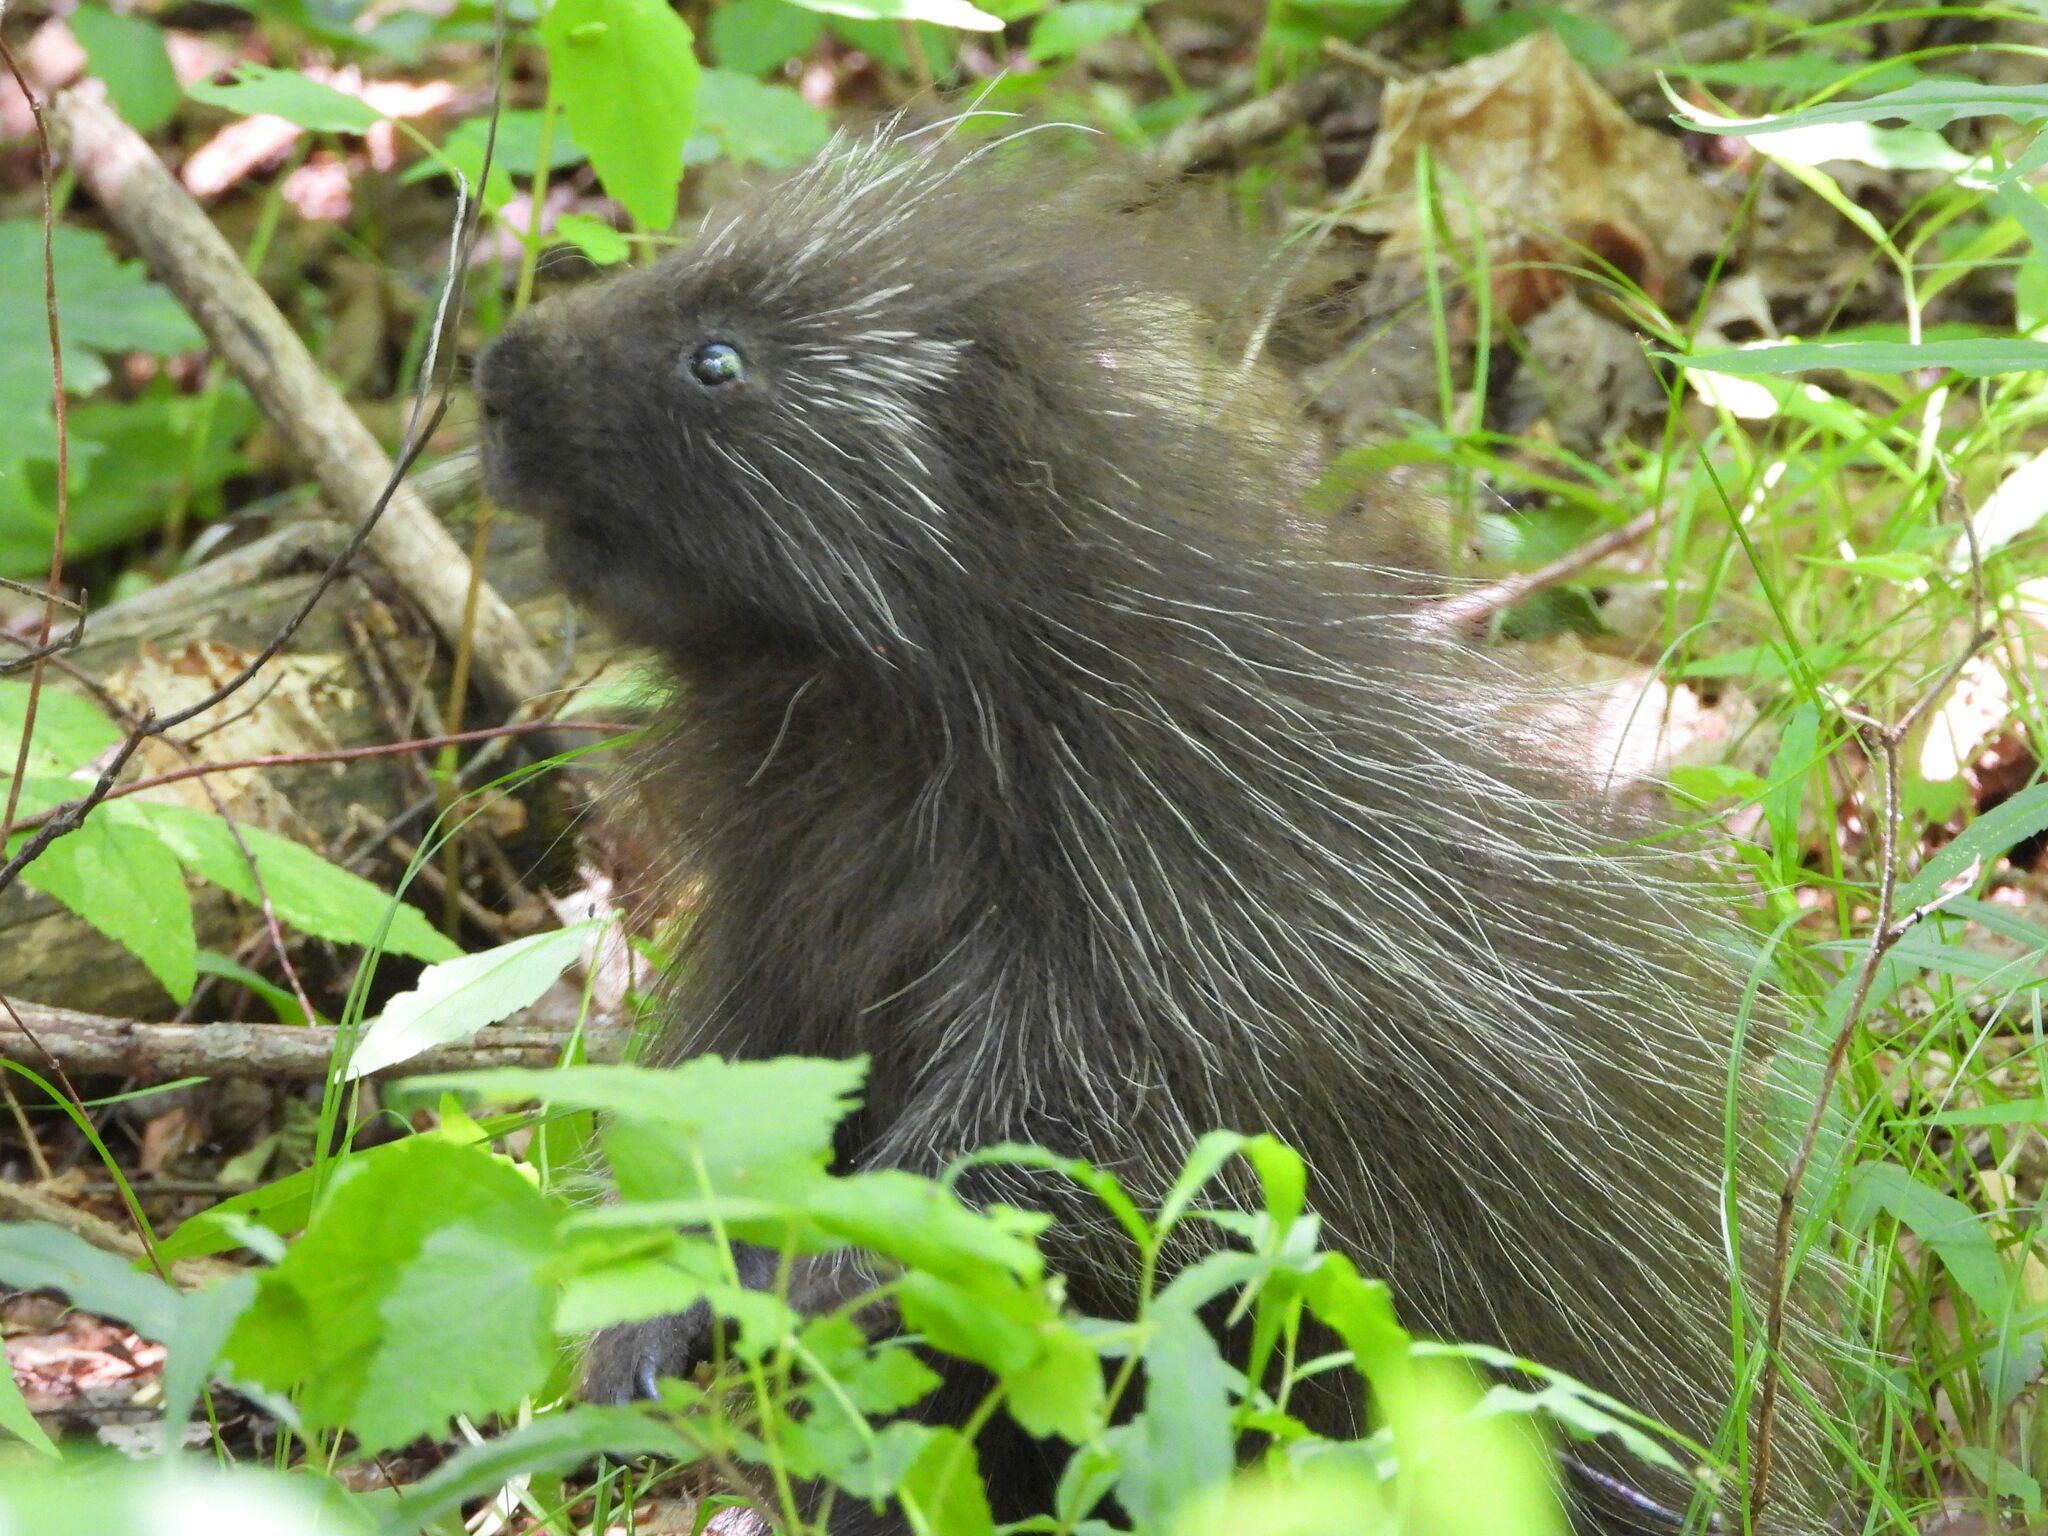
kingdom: Animalia
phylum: Chordata
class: Mammalia
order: Rodentia
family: Erethizontidae
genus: Erethizon
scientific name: Erethizon dorsatus
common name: North american porcupine
